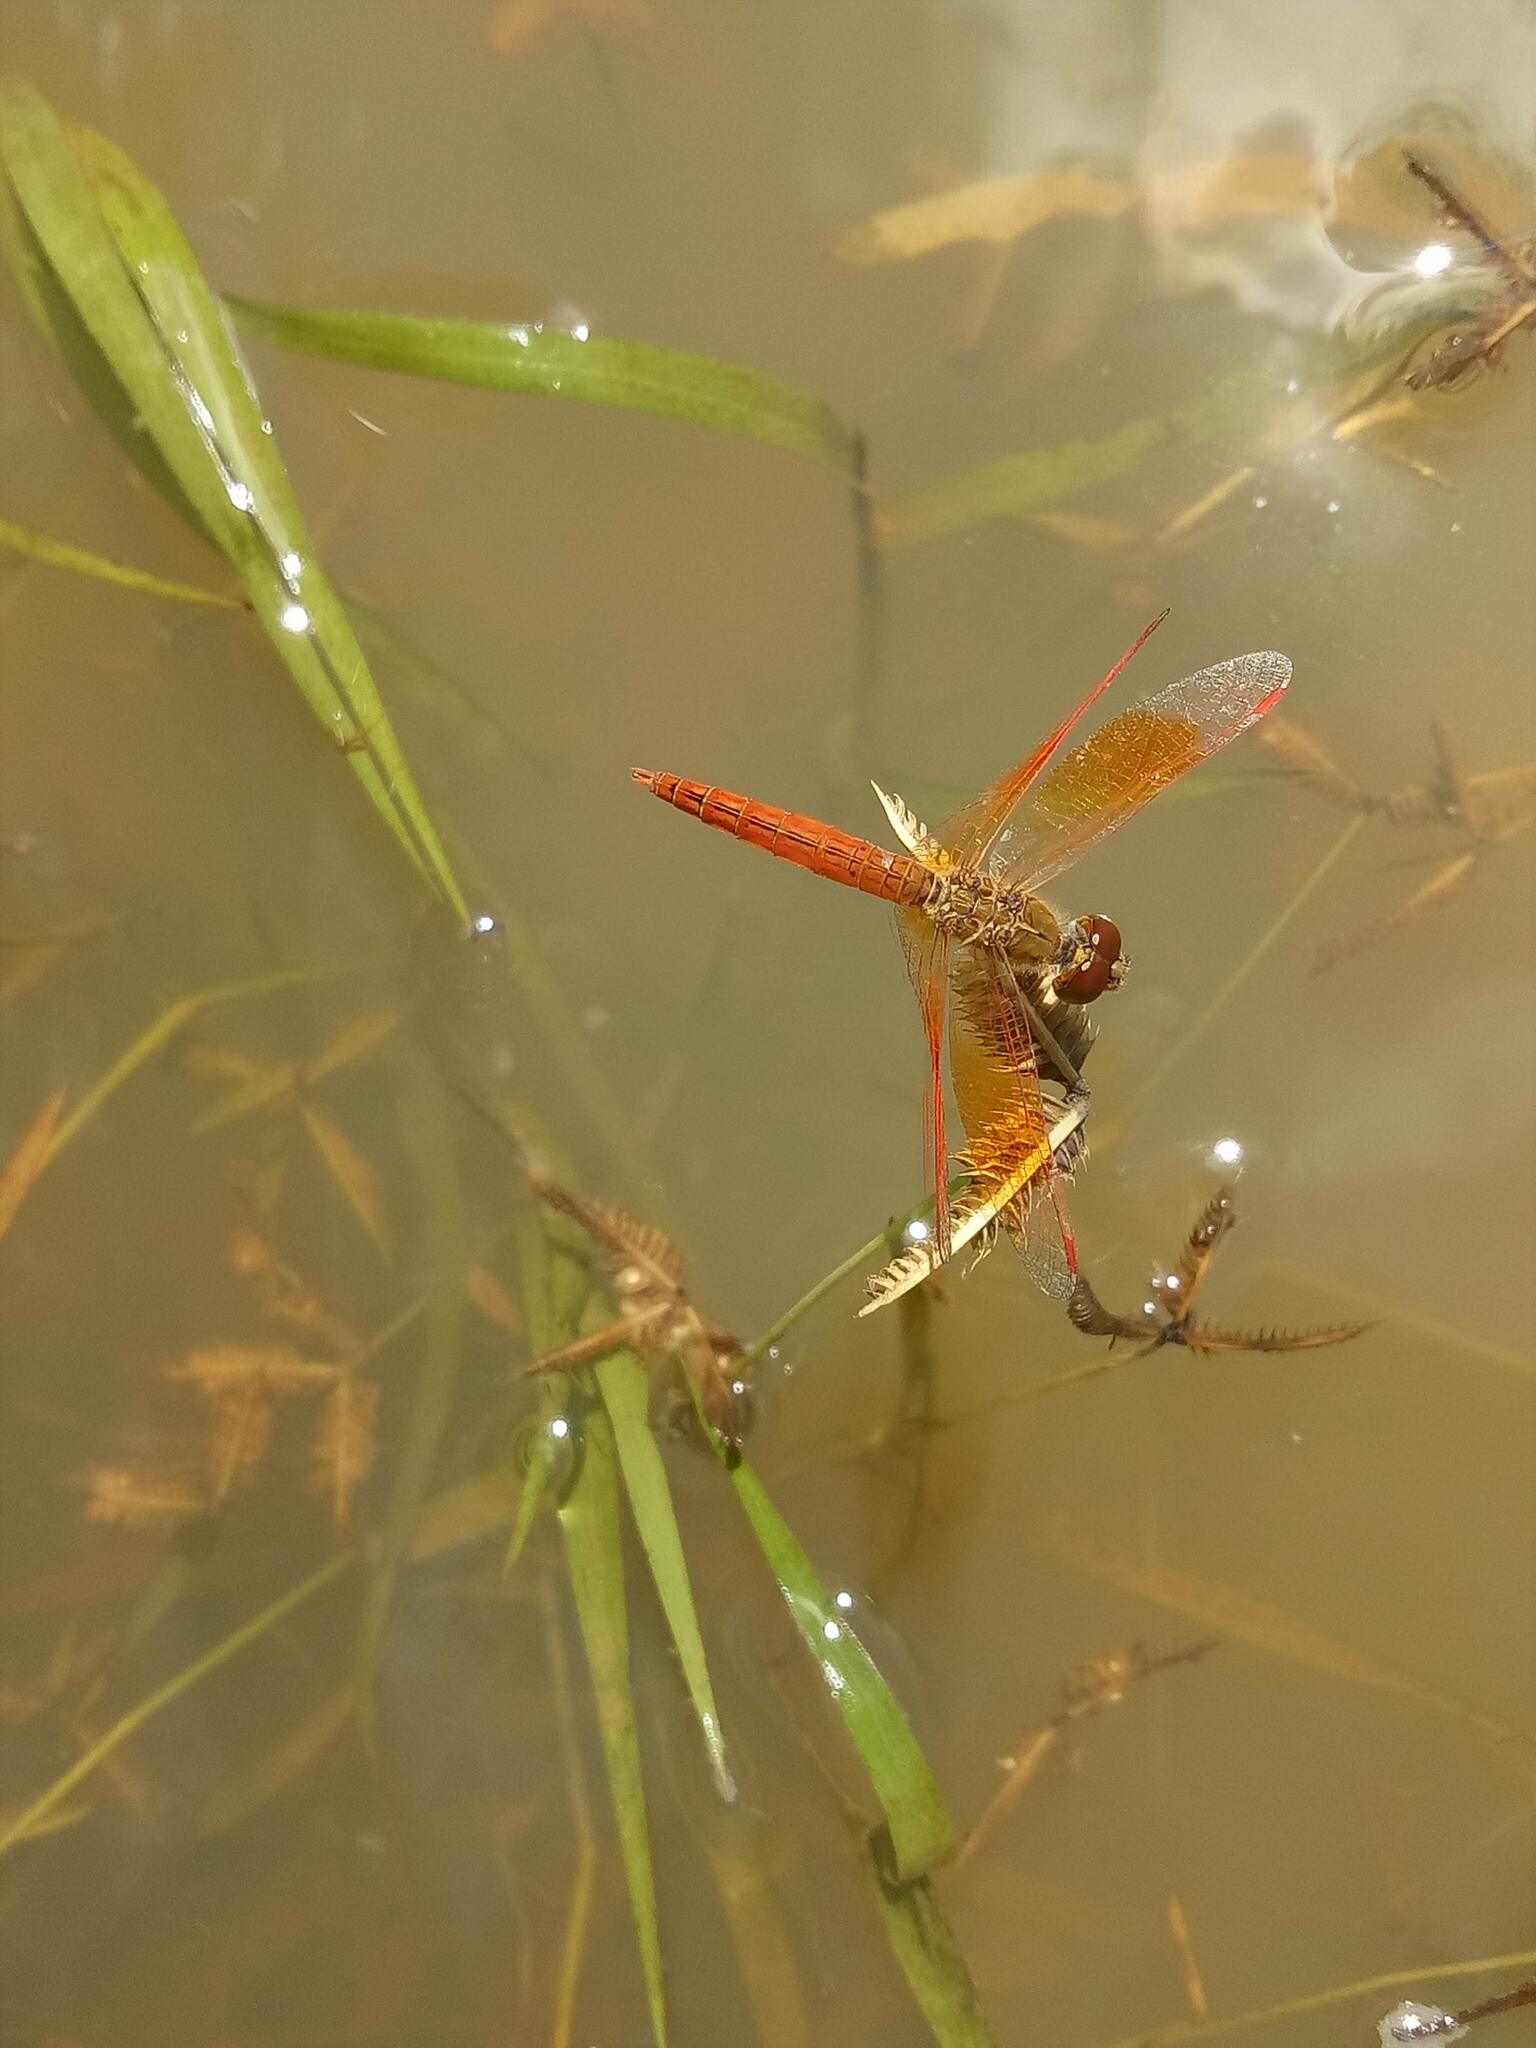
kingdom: Animalia
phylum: Arthropoda
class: Insecta
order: Odonata
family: Libellulidae
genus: Brachythemis
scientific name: Brachythemis contaminata
